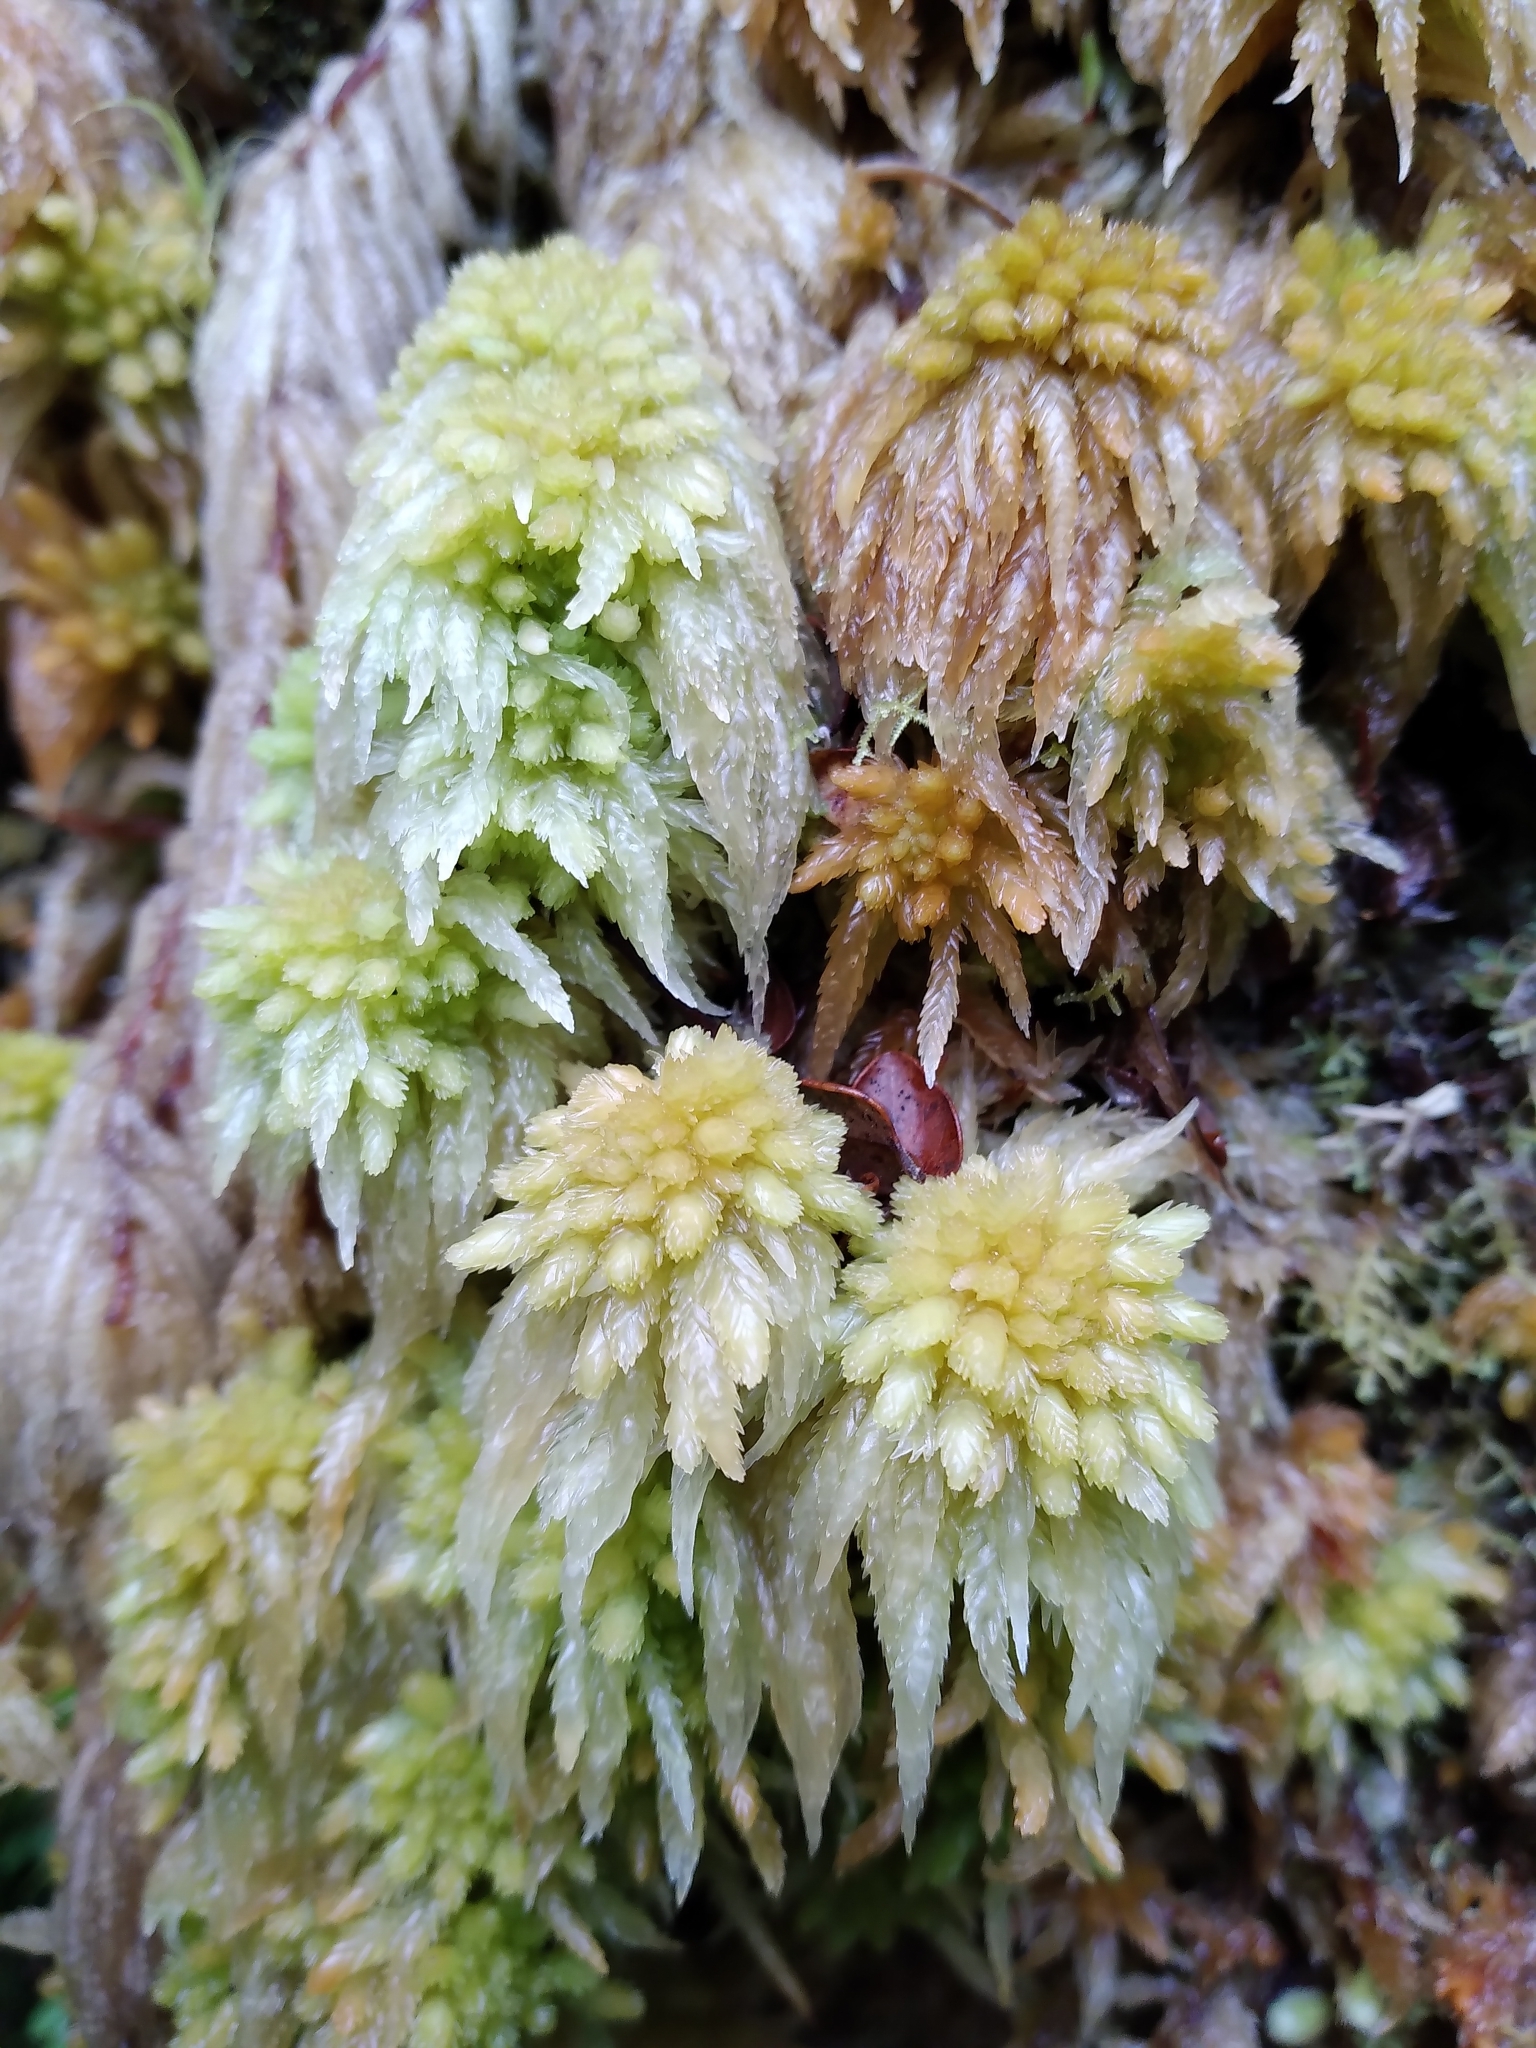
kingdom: Plantae
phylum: Bryophyta
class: Sphagnopsida
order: Sphagnales
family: Sphagnaceae
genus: Sphagnum
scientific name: Sphagnum cristatum
